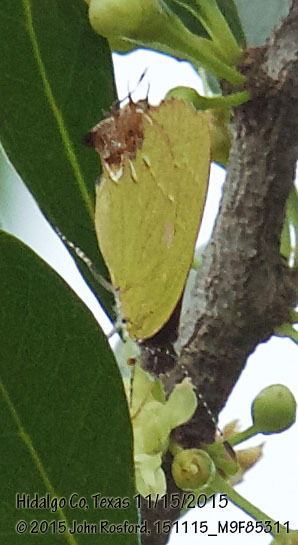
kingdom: Animalia
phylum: Arthropoda
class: Insecta
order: Lepidoptera
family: Lycaenidae
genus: Chlorostrymon
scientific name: Chlorostrymon telea
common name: Telea hairstreak
